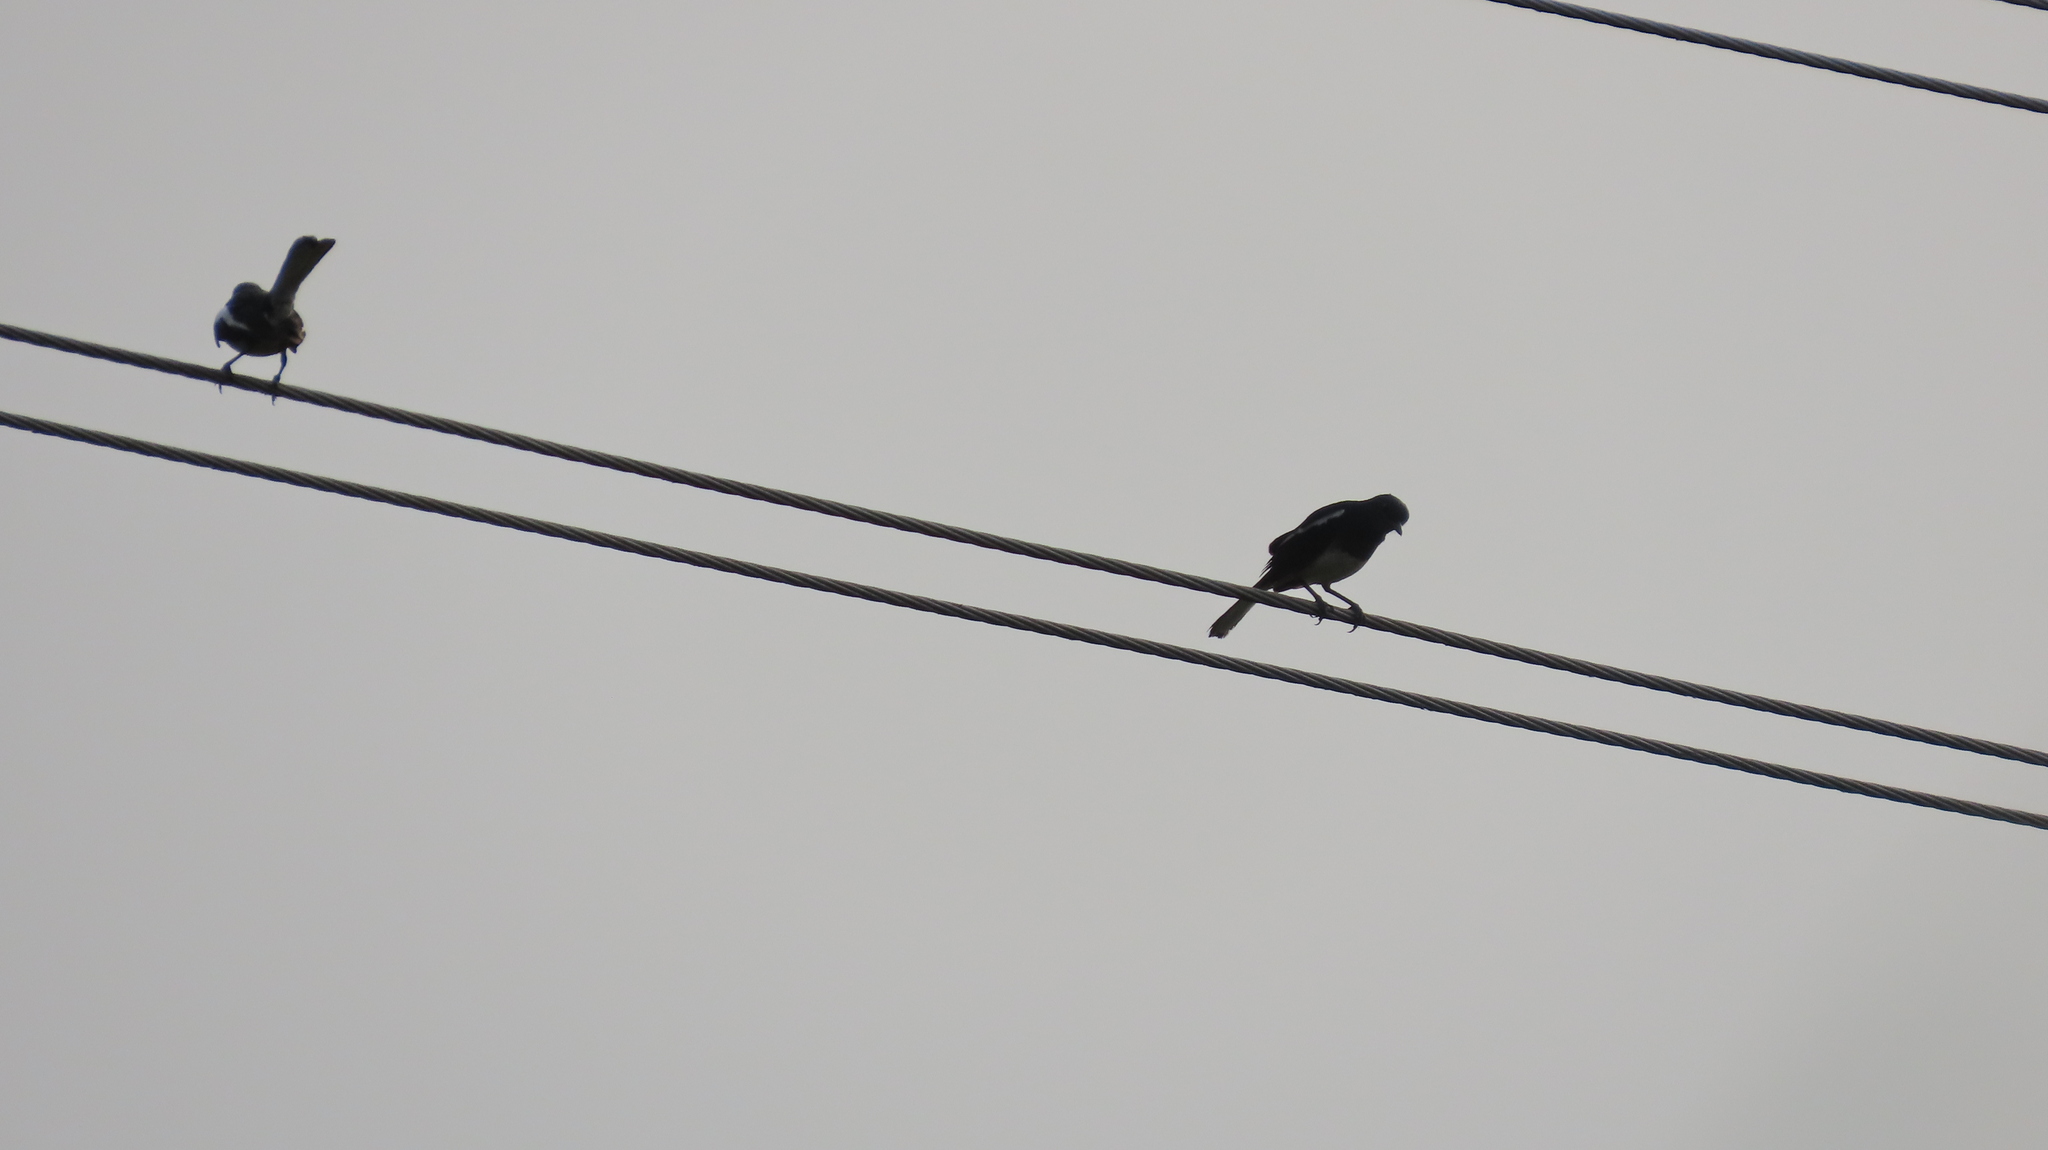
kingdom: Animalia
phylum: Chordata
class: Aves
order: Passeriformes
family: Muscicapidae
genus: Copsychus
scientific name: Copsychus saularis
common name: Oriental magpie-robin
